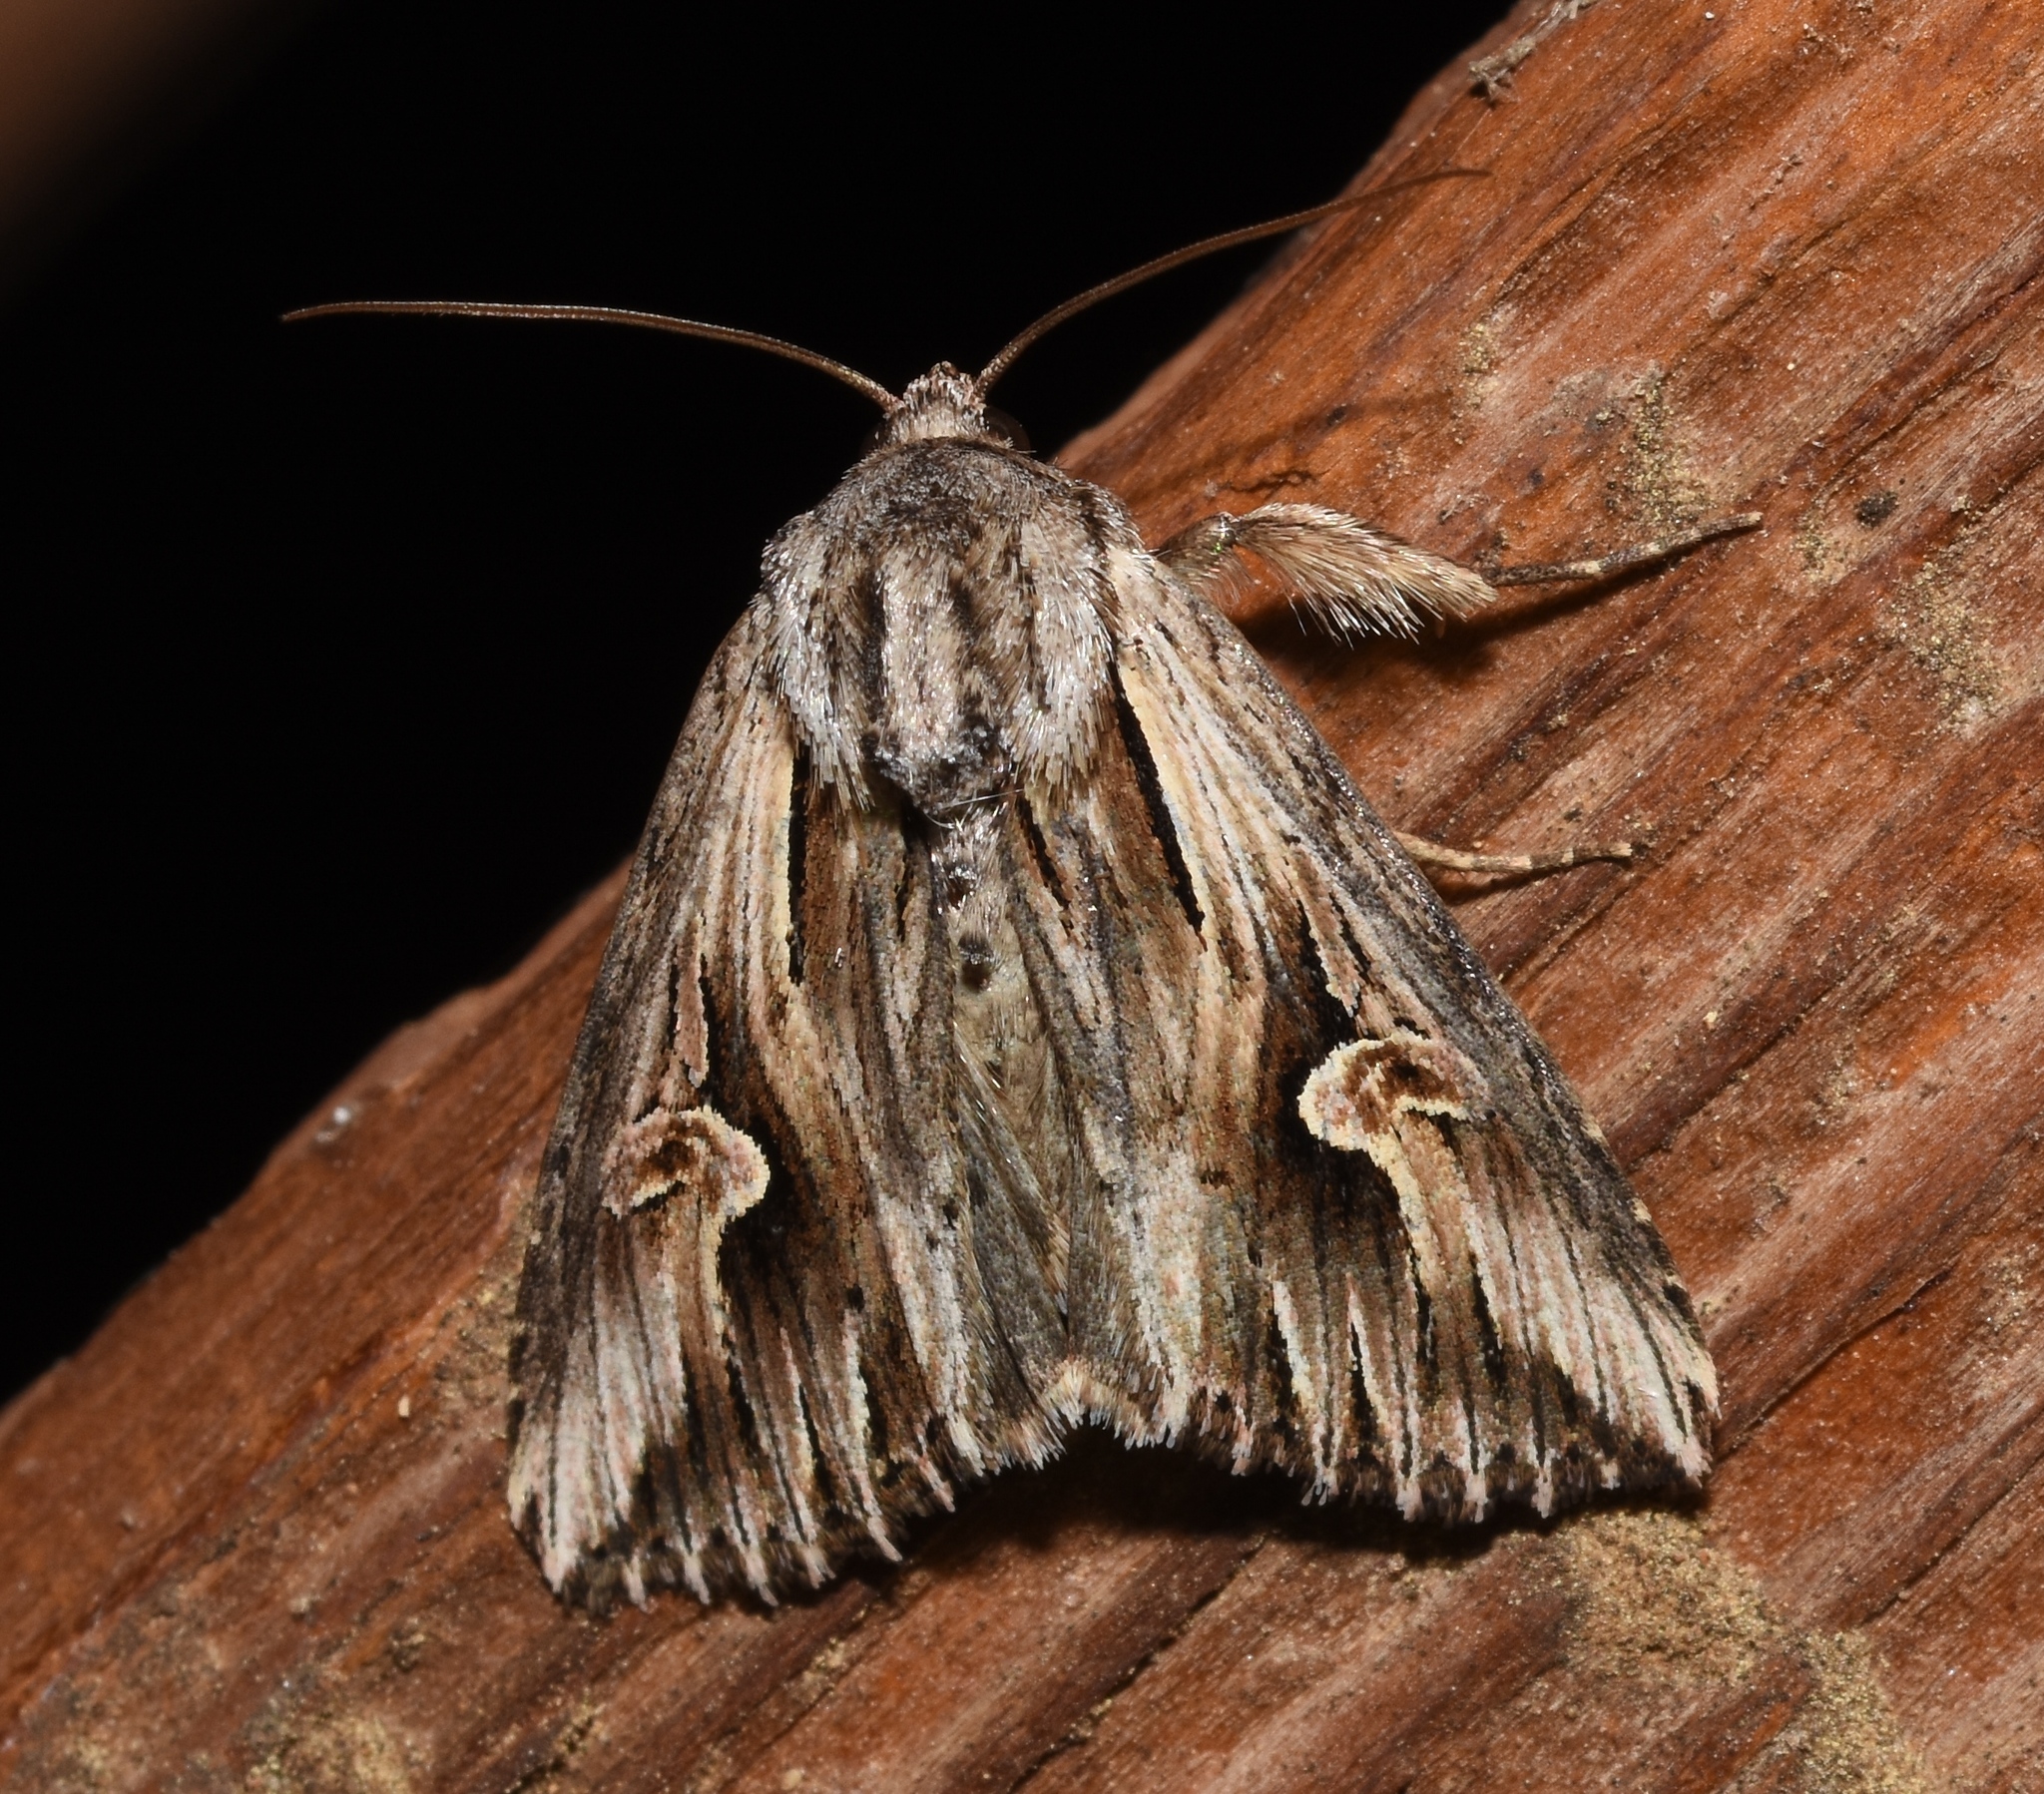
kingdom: Animalia
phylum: Arthropoda
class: Insecta
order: Lepidoptera
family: Noctuidae
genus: Nedra
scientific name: Nedra ramosula
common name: Gray half-spot
